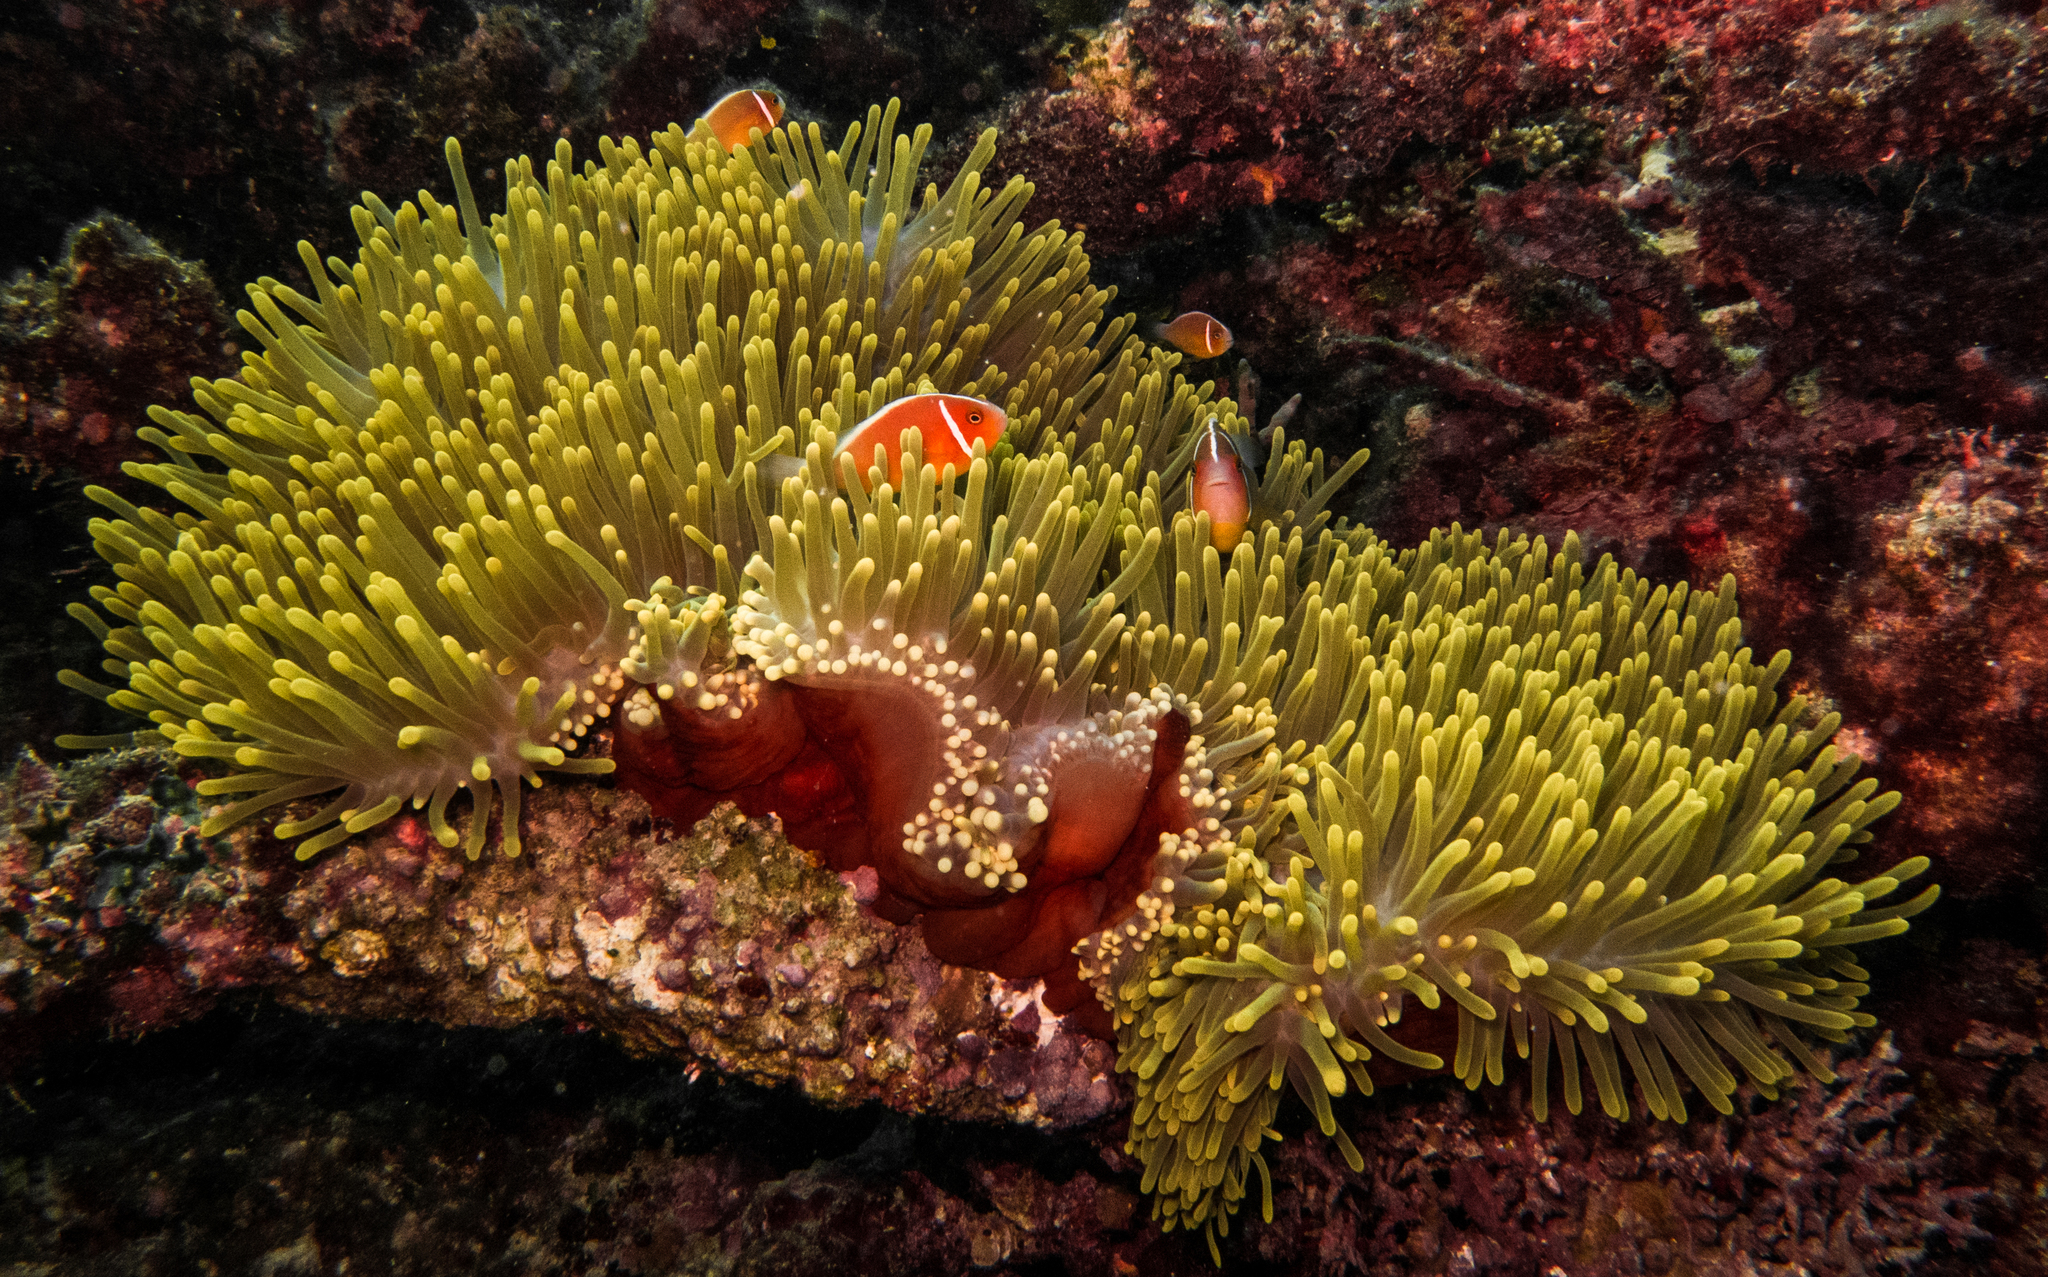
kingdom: Animalia
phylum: Cnidaria
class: Anthozoa
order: Actiniaria
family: Stichodactylidae
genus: Radianthus
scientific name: Radianthus magnifica
